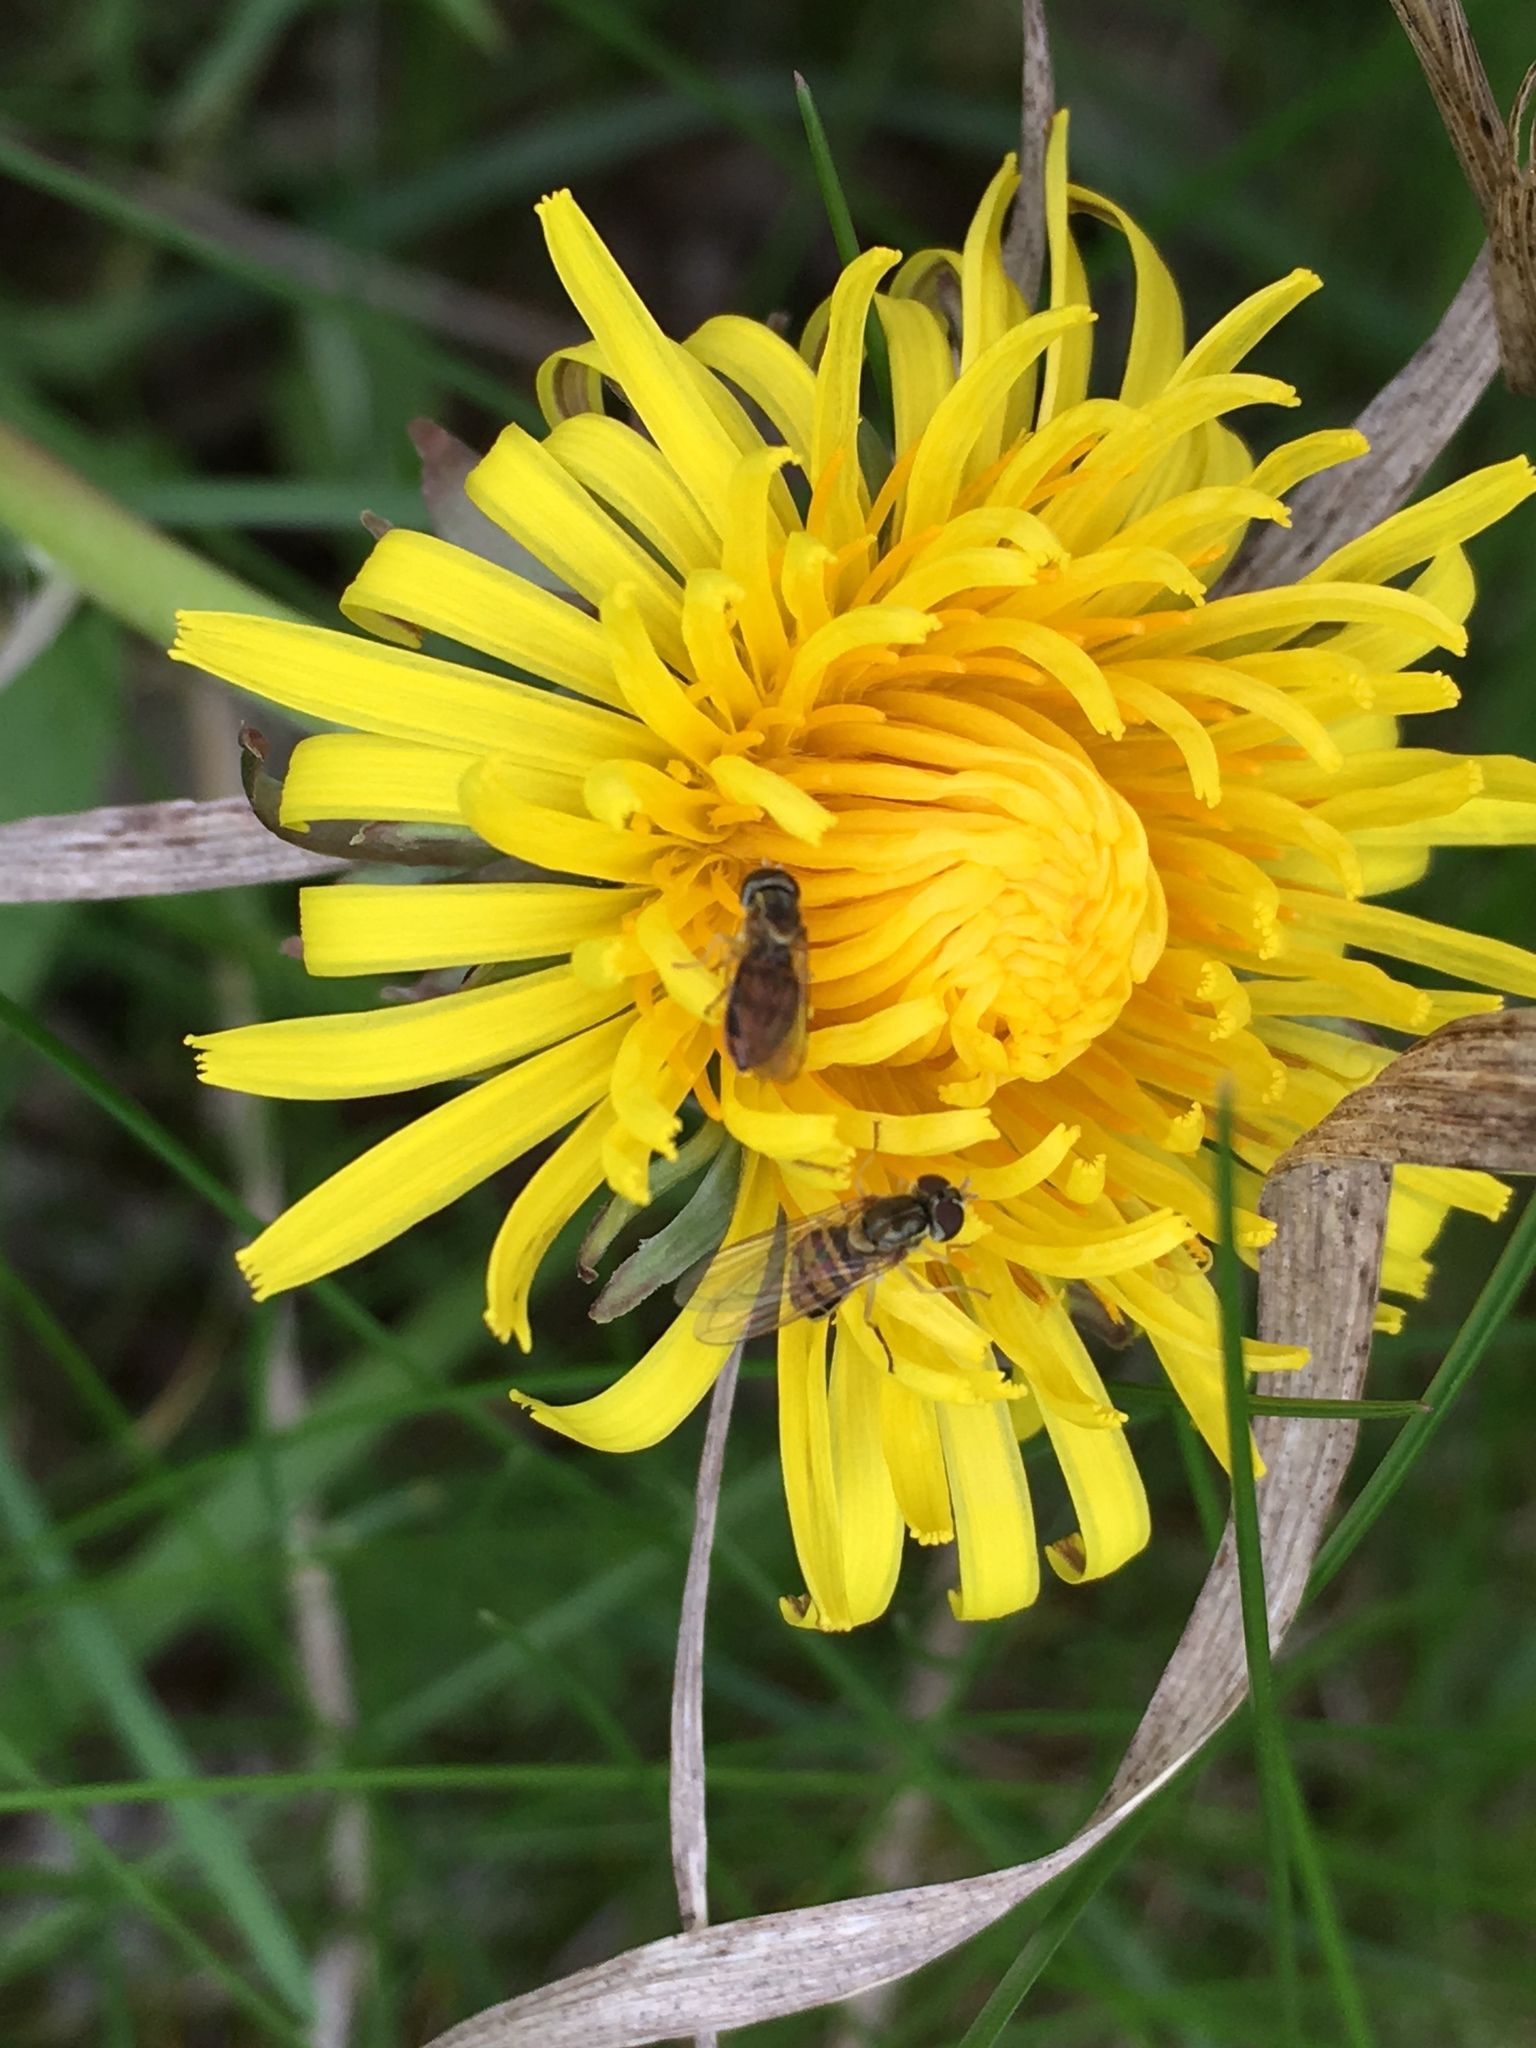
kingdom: Animalia
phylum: Arthropoda
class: Insecta
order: Diptera
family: Syrphidae
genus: Toxomerus
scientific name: Toxomerus marginatus
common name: Syrphid fly
